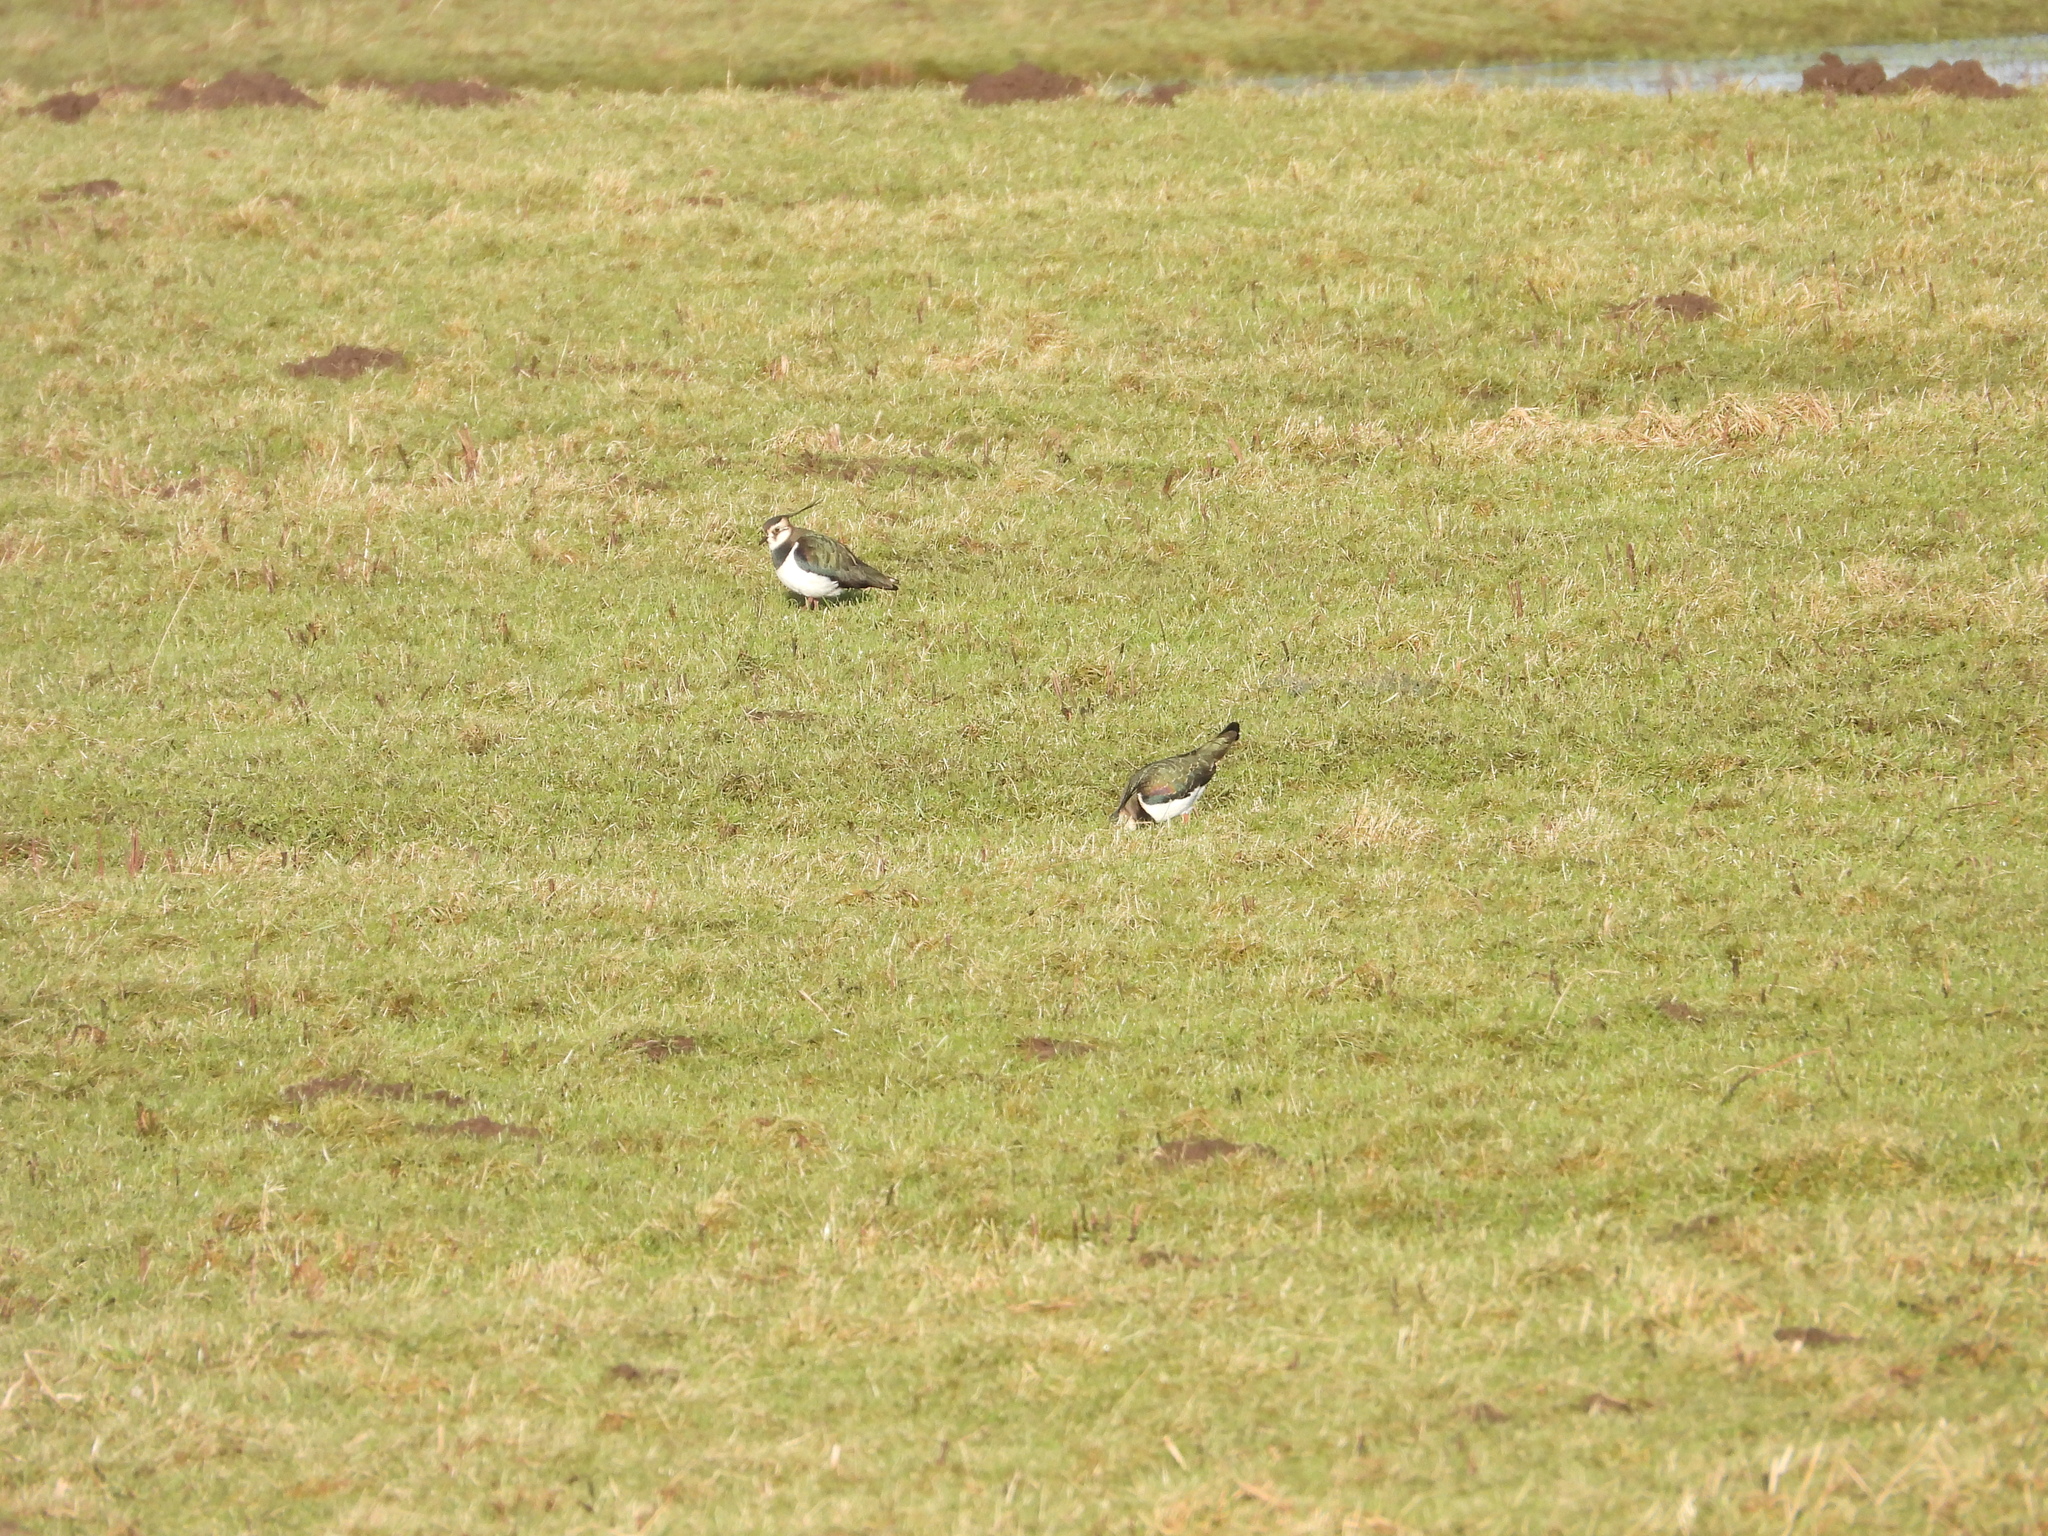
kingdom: Animalia
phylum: Chordata
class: Aves
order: Charadriiformes
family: Charadriidae
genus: Vanellus
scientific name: Vanellus vanellus
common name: Northern lapwing
